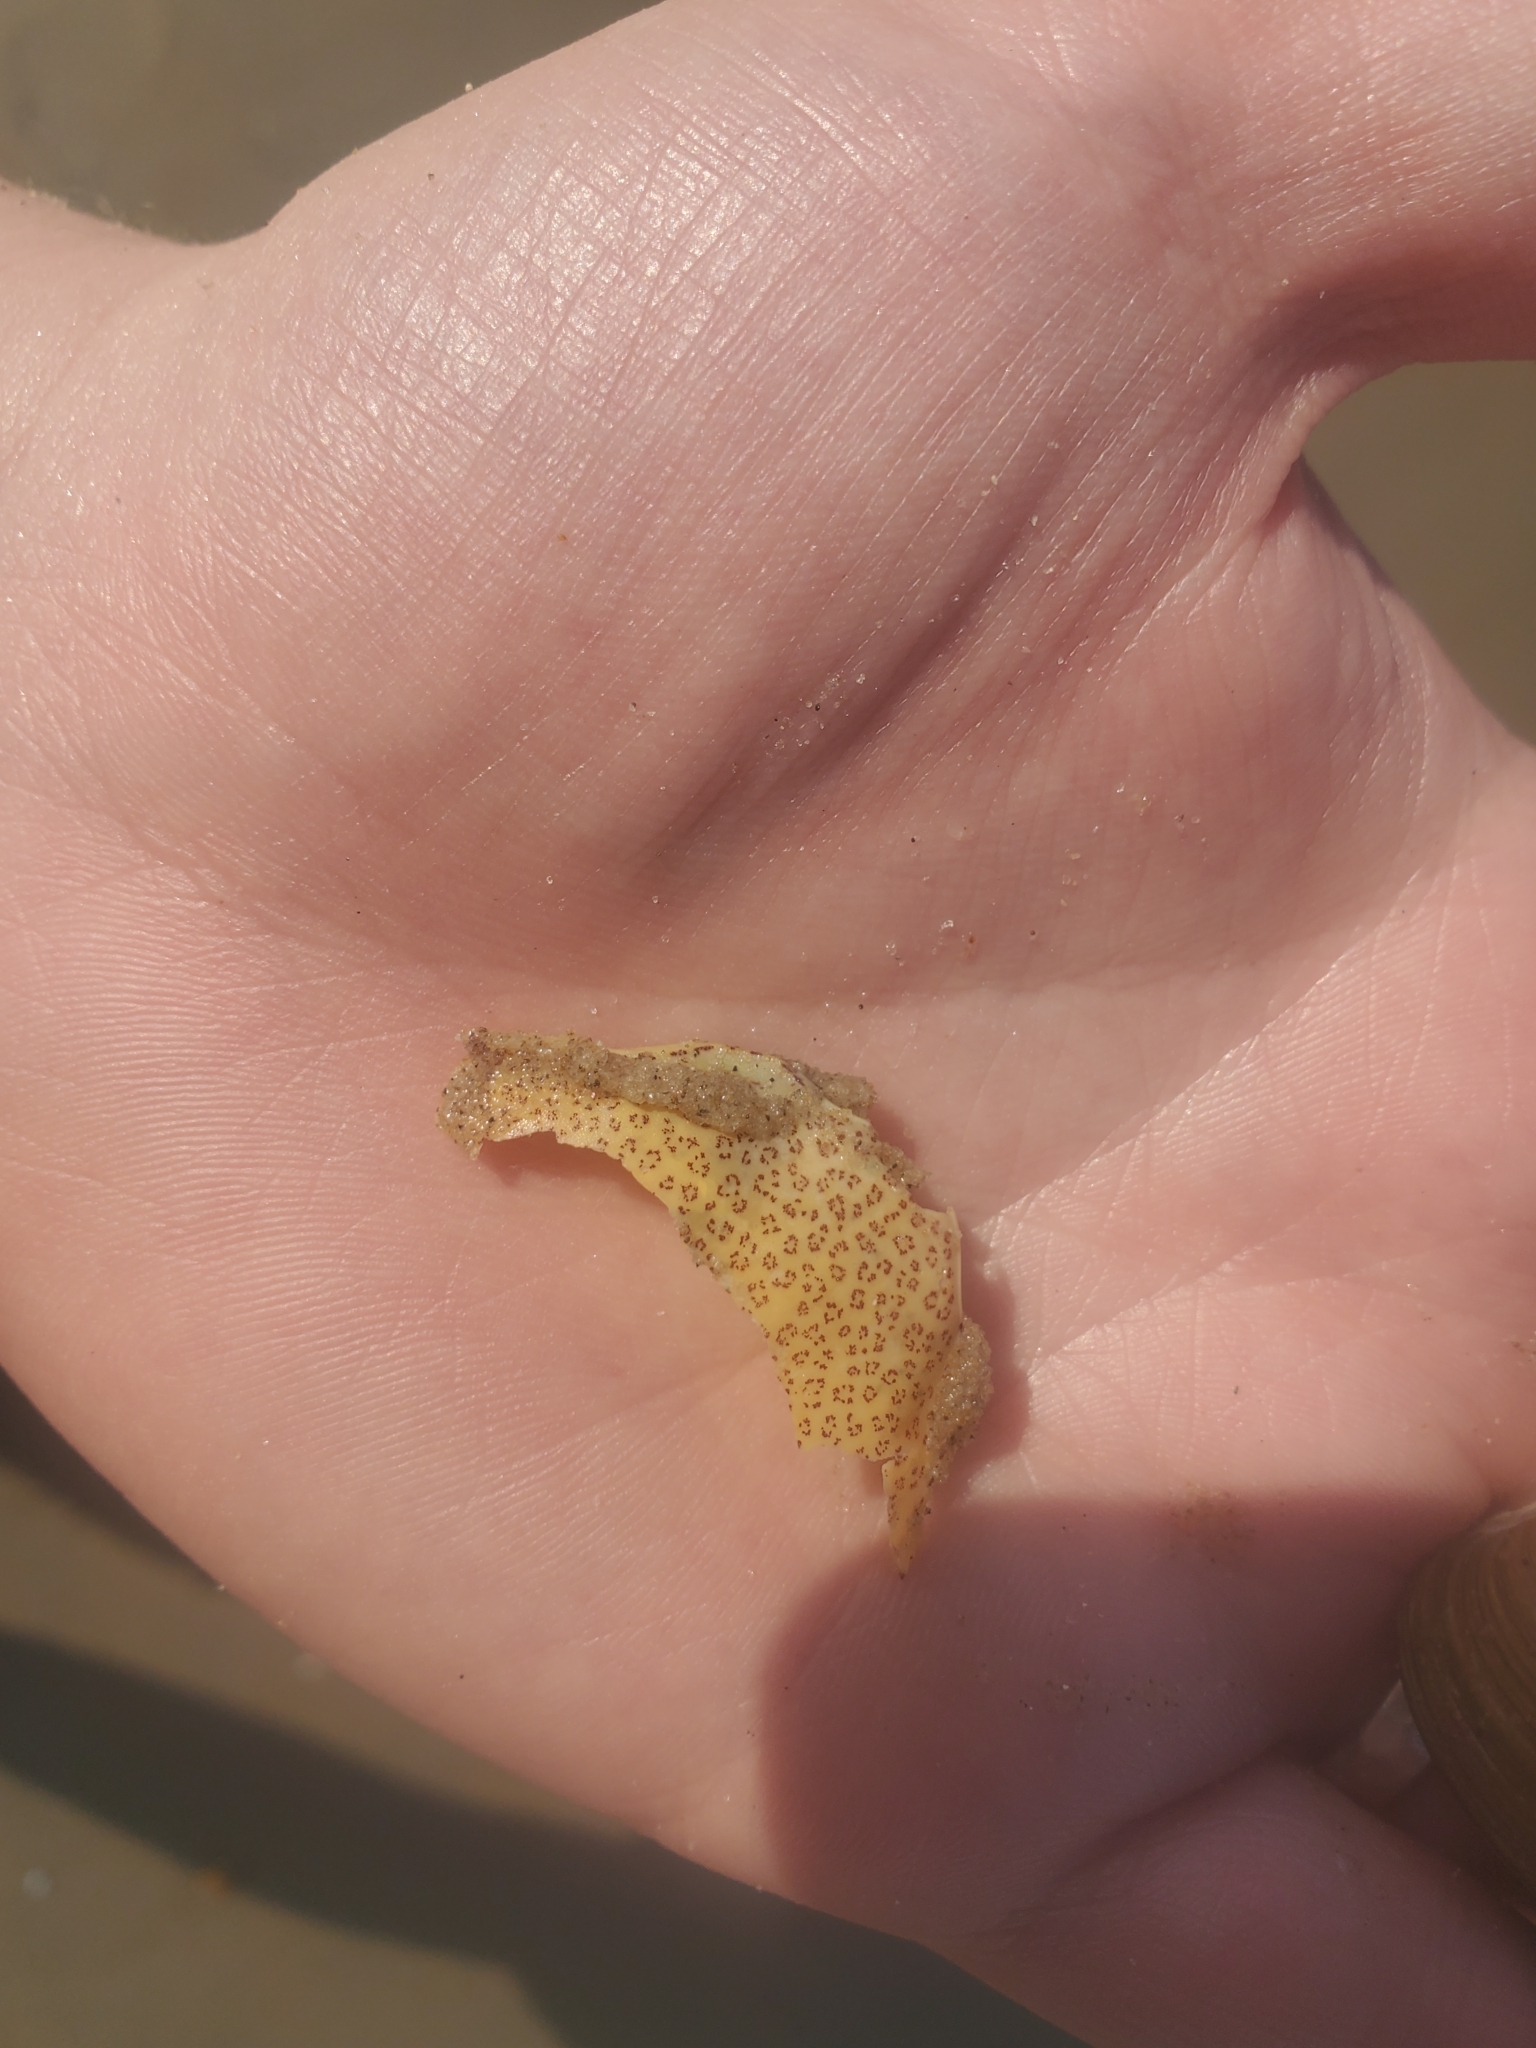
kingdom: Animalia
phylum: Arthropoda
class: Malacostraca
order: Decapoda
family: Ovalipidae
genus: Ovalipes
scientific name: Ovalipes ocellatus
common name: Lady crab
